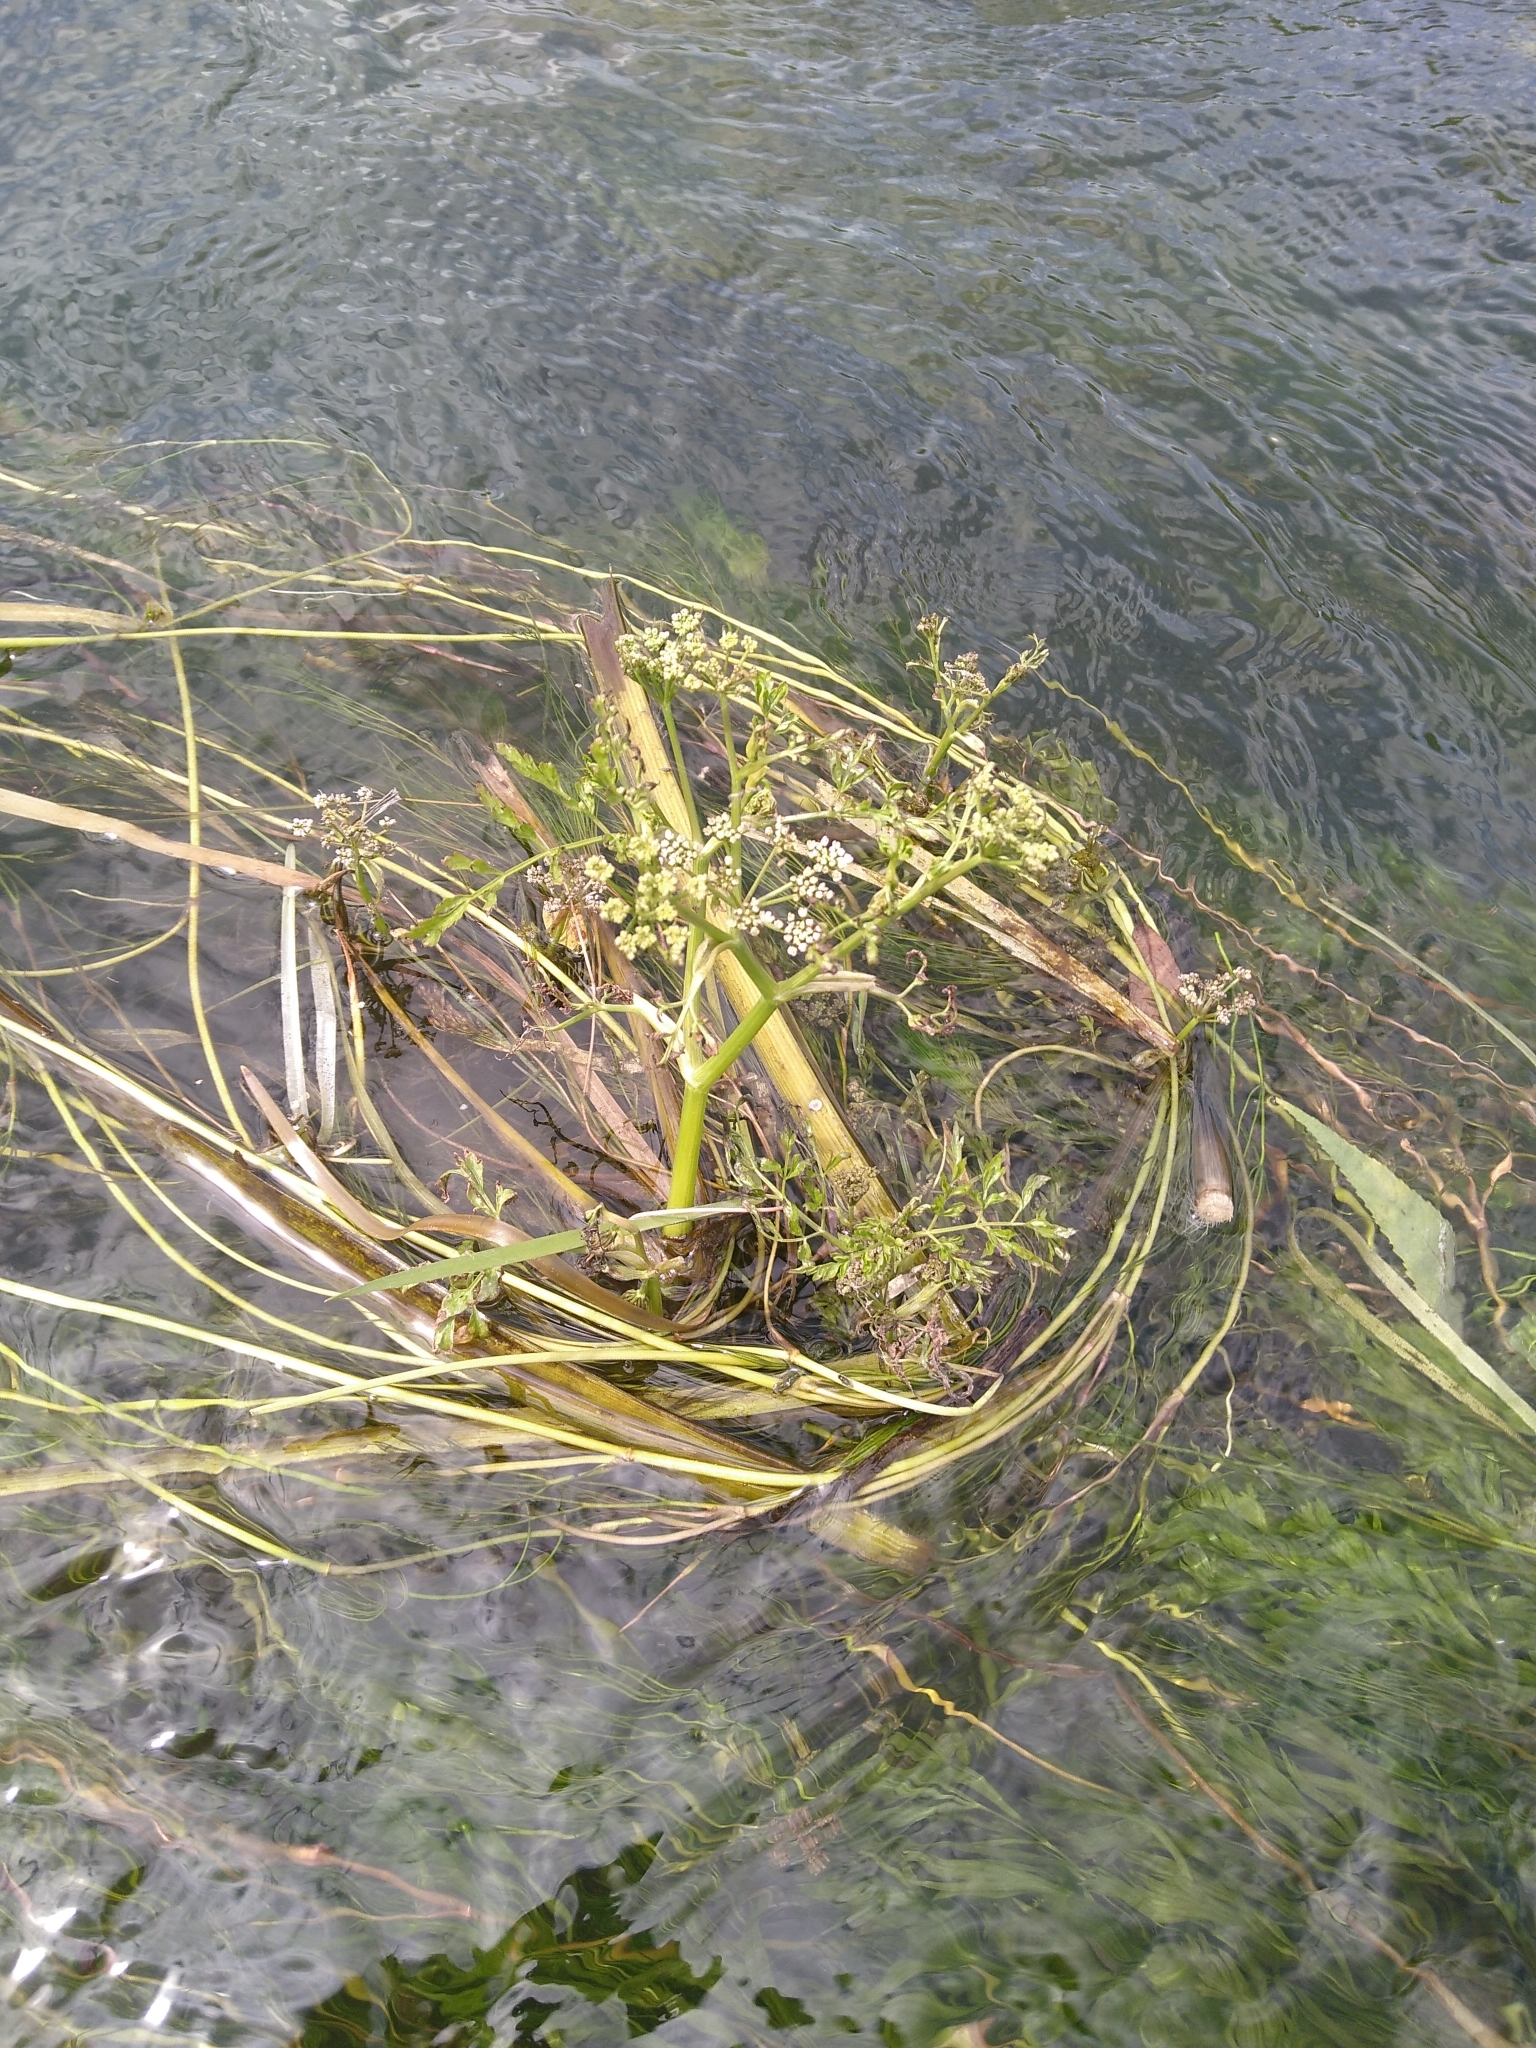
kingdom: Plantae
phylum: Tracheophyta
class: Magnoliopsida
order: Apiales
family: Apiaceae
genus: Oenanthe
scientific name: Oenanthe fluviatilis
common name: River water-dropwort
